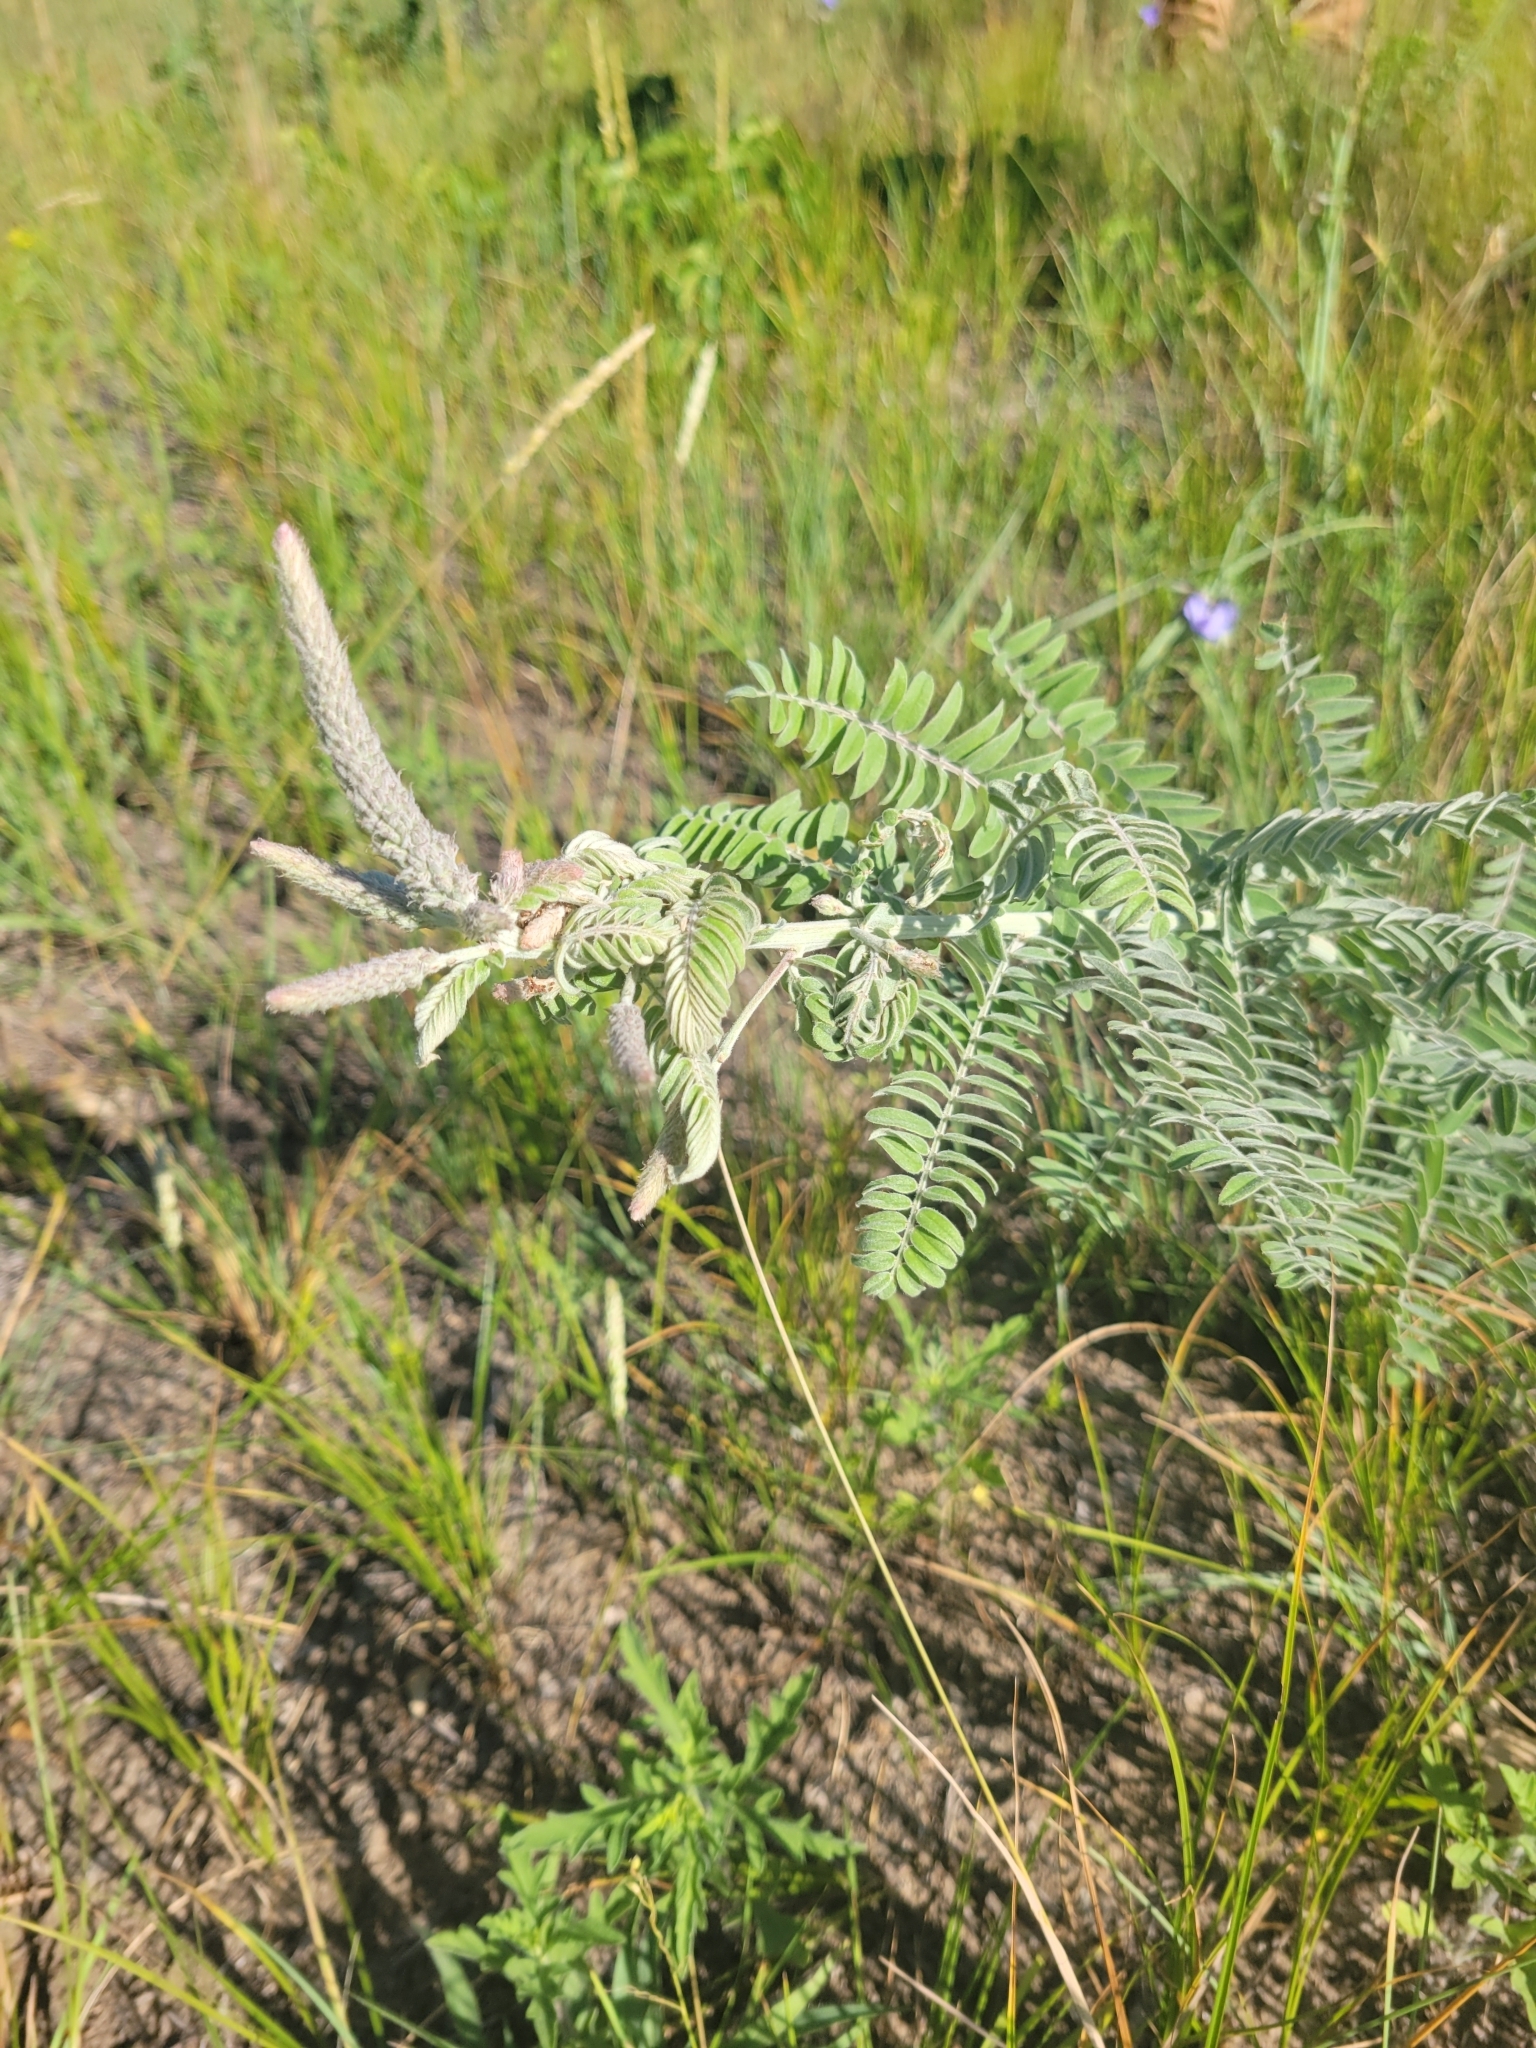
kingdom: Plantae
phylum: Tracheophyta
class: Magnoliopsida
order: Fabales
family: Fabaceae
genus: Amorpha
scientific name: Amorpha canescens
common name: Leadplant
